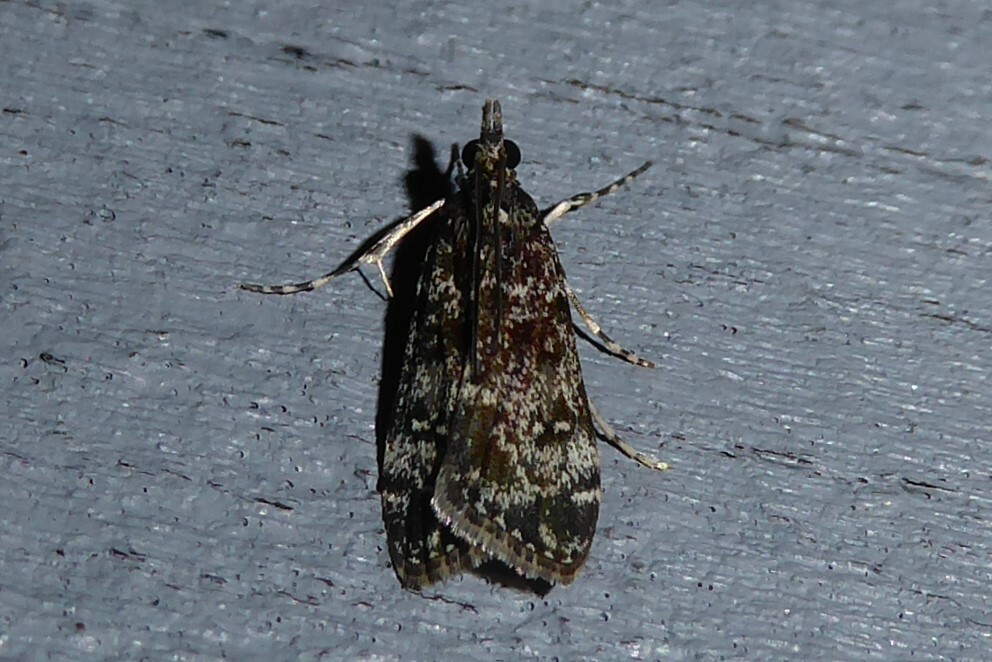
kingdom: Animalia
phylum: Arthropoda
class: Insecta
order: Lepidoptera
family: Crambidae
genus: Eudonia
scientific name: Eudonia philerga
